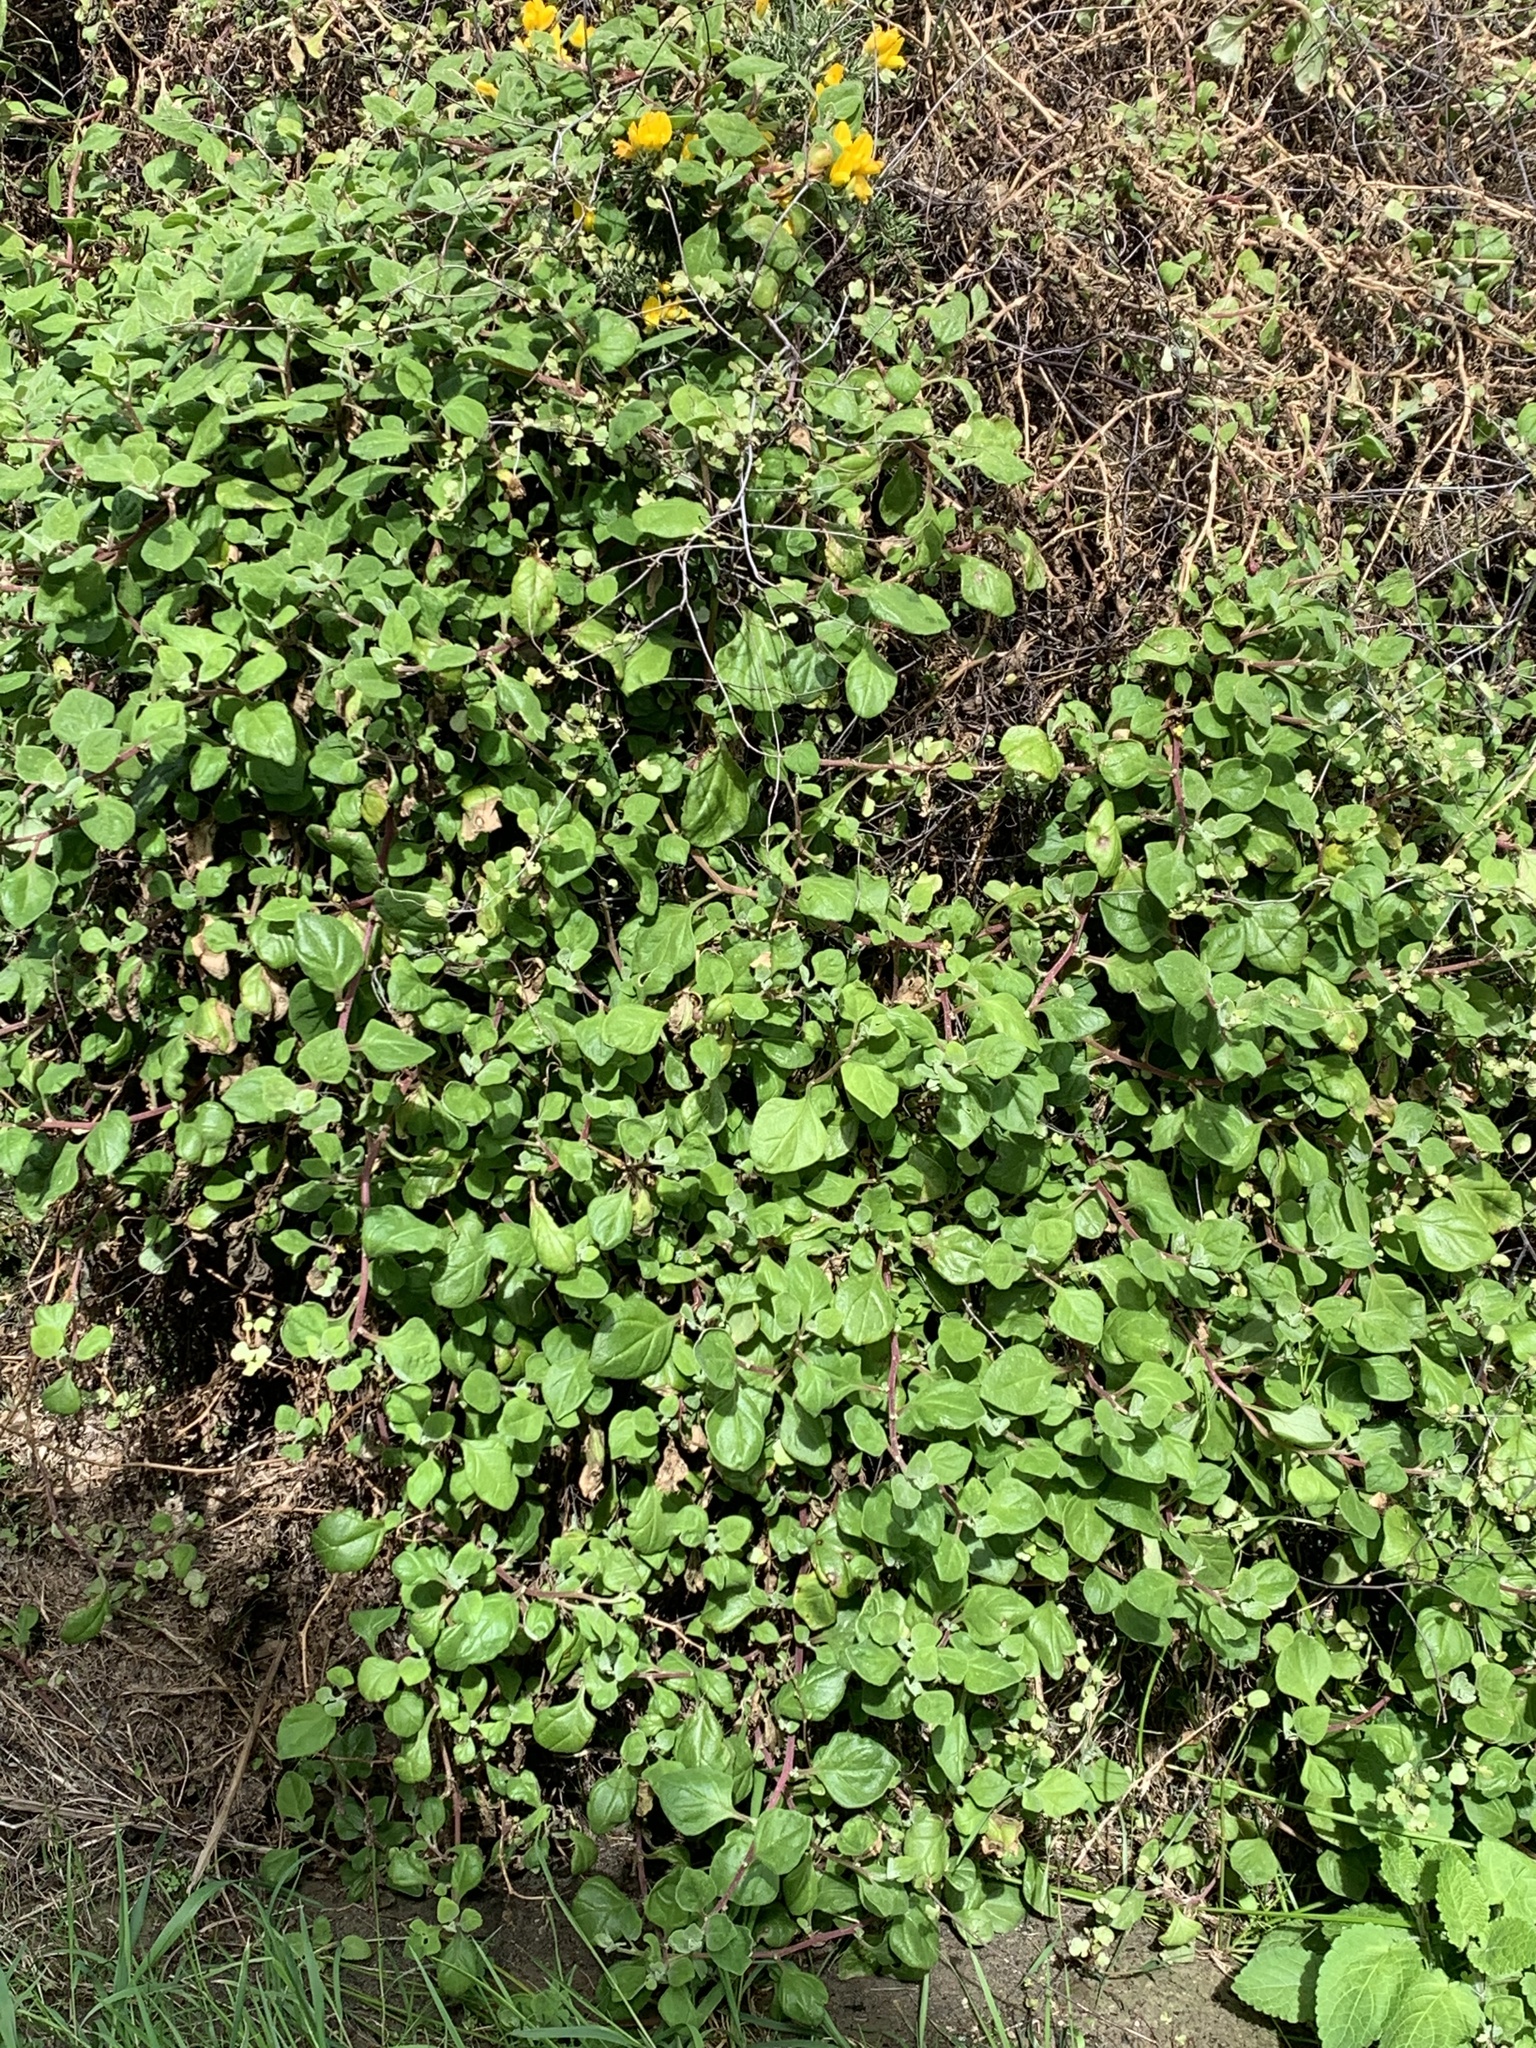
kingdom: Plantae
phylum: Tracheophyta
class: Magnoliopsida
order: Caryophyllales
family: Aizoaceae
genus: Tetragonia
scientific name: Tetragonia implexicoma
